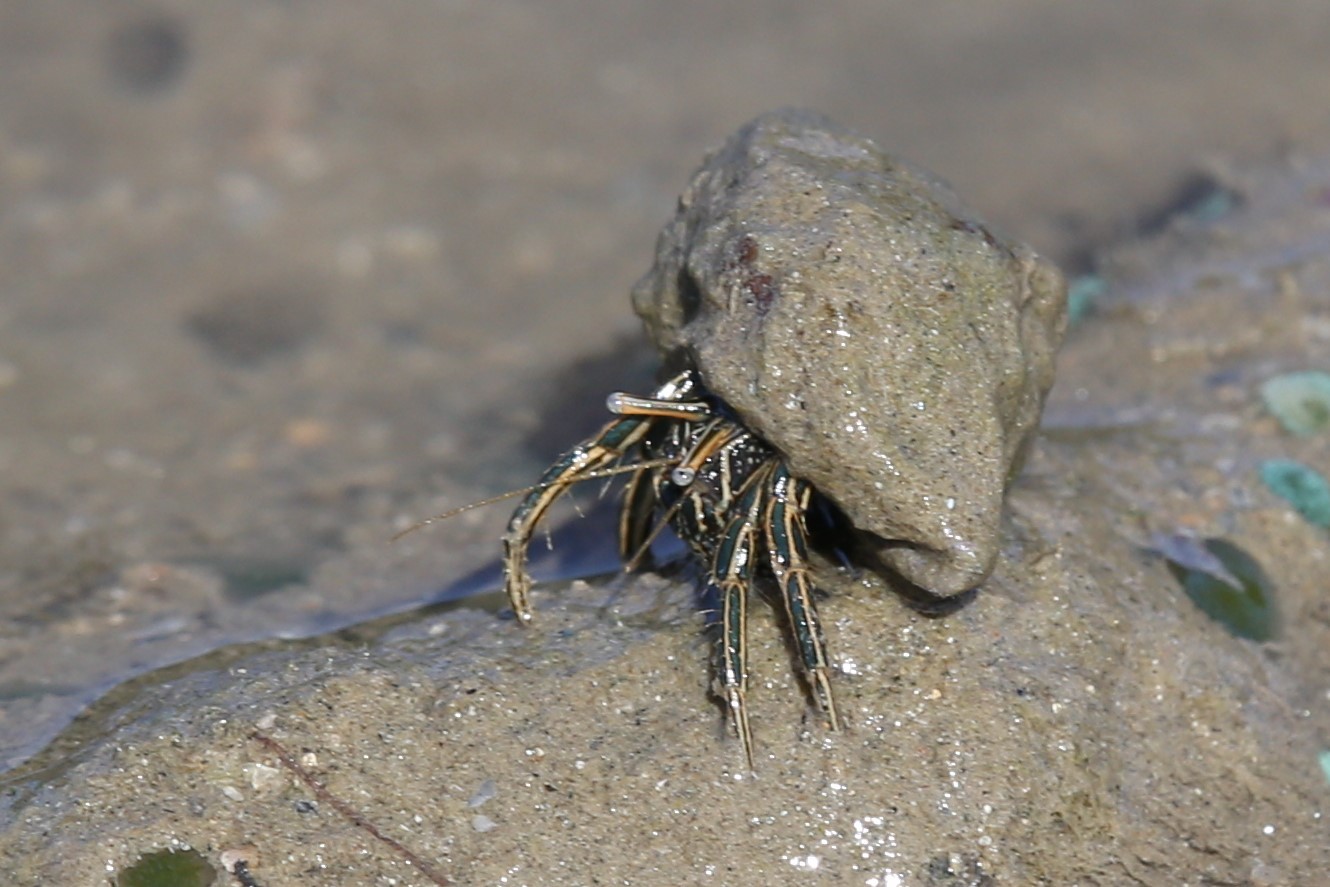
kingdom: Animalia
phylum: Arthropoda
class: Malacostraca
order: Decapoda
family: Diogenidae
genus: Clibanarius
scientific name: Clibanarius taeniatus
